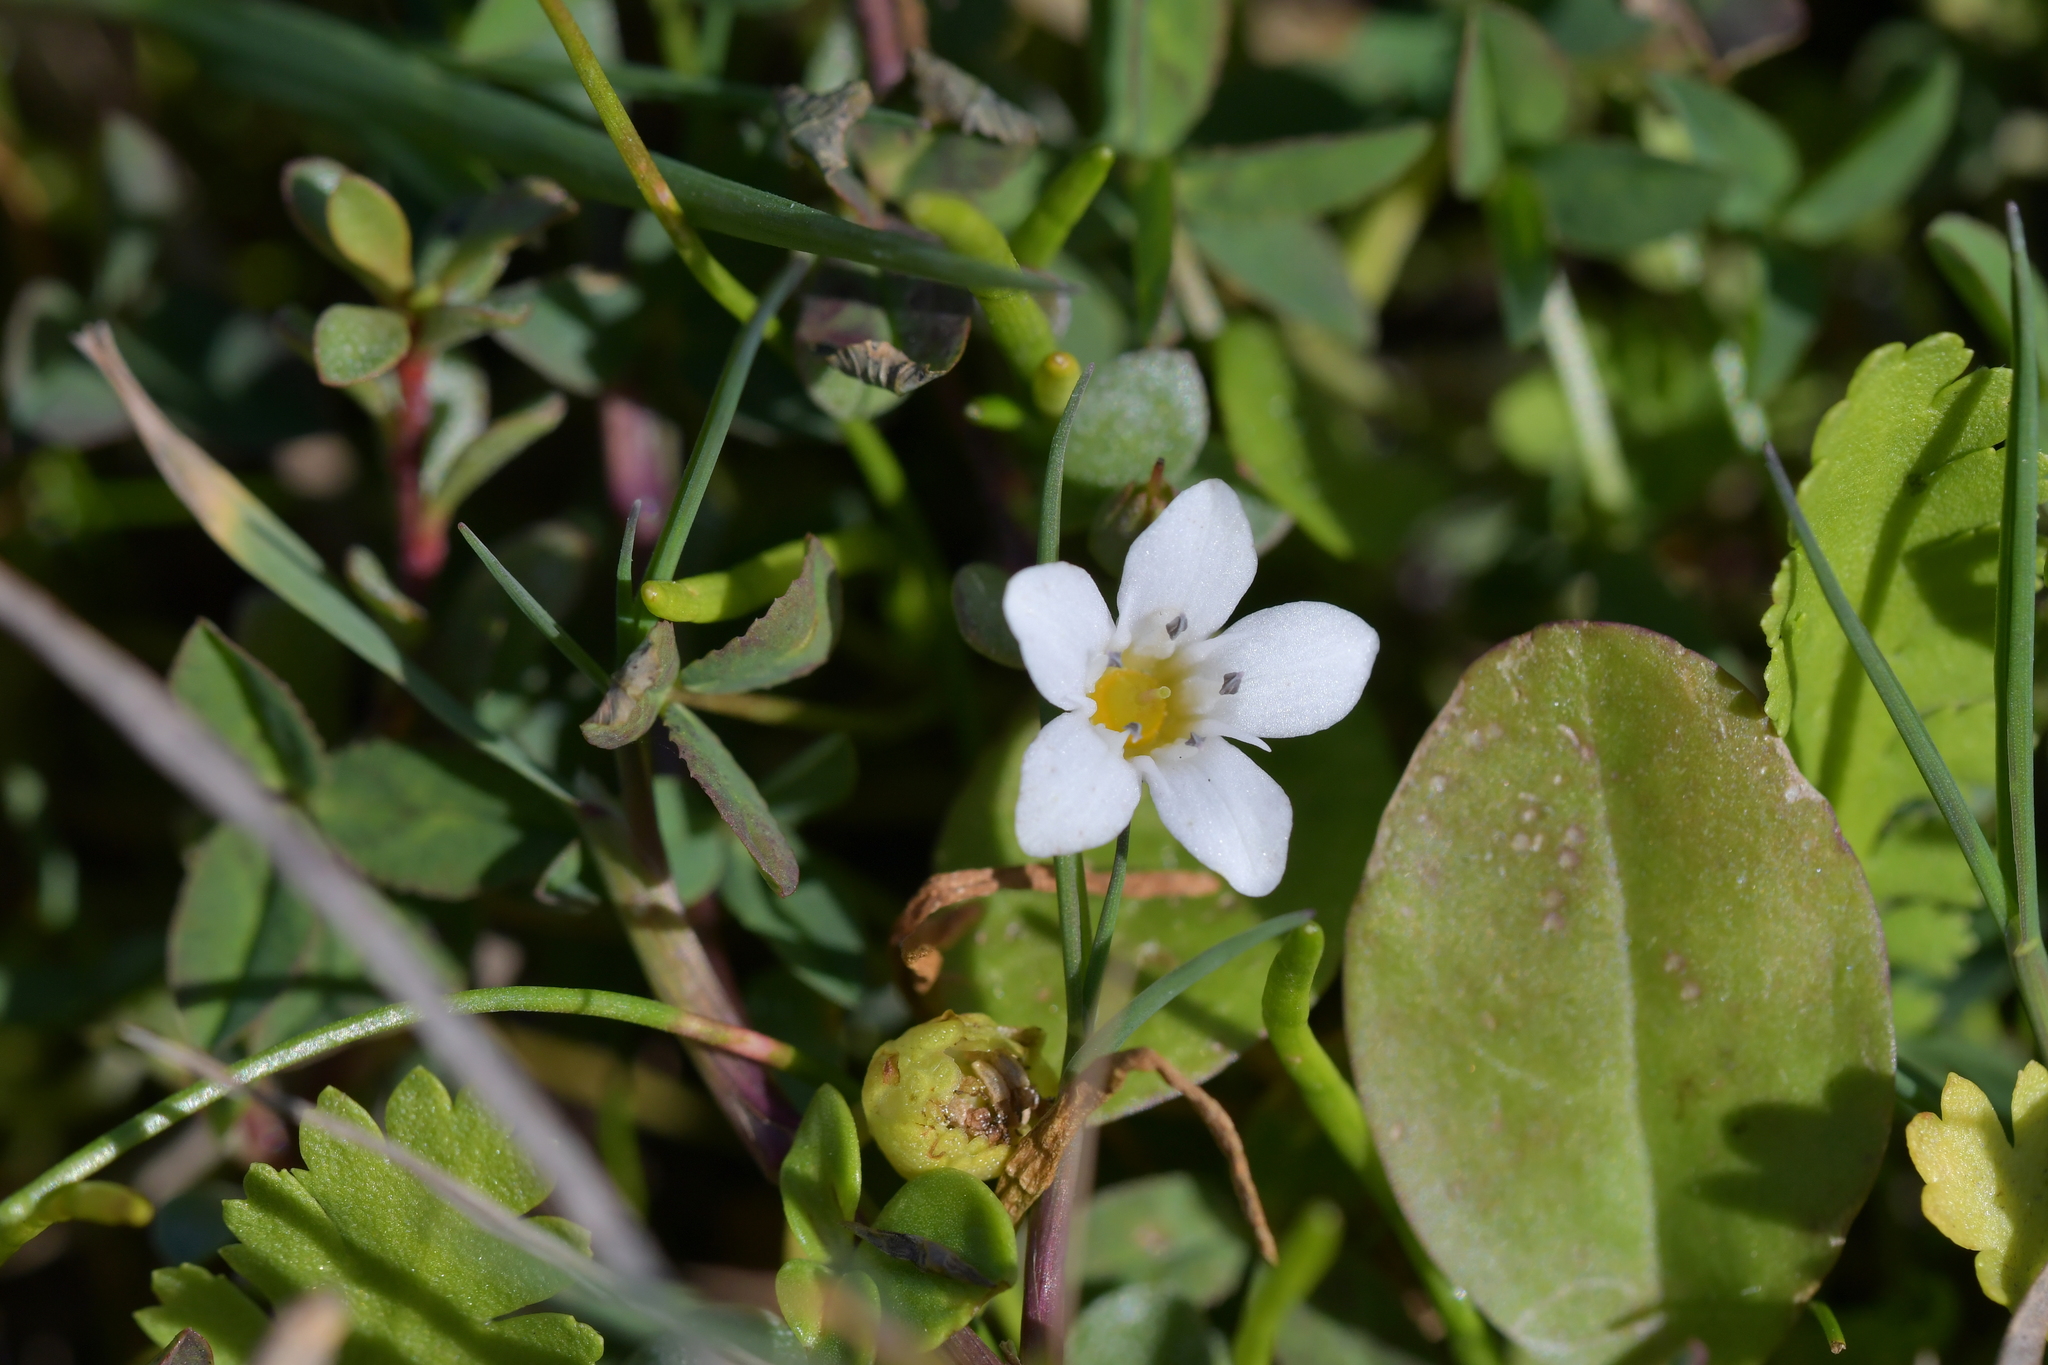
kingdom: Plantae
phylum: Tracheophyta
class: Magnoliopsida
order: Ericales
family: Primulaceae
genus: Samolus
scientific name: Samolus repens
